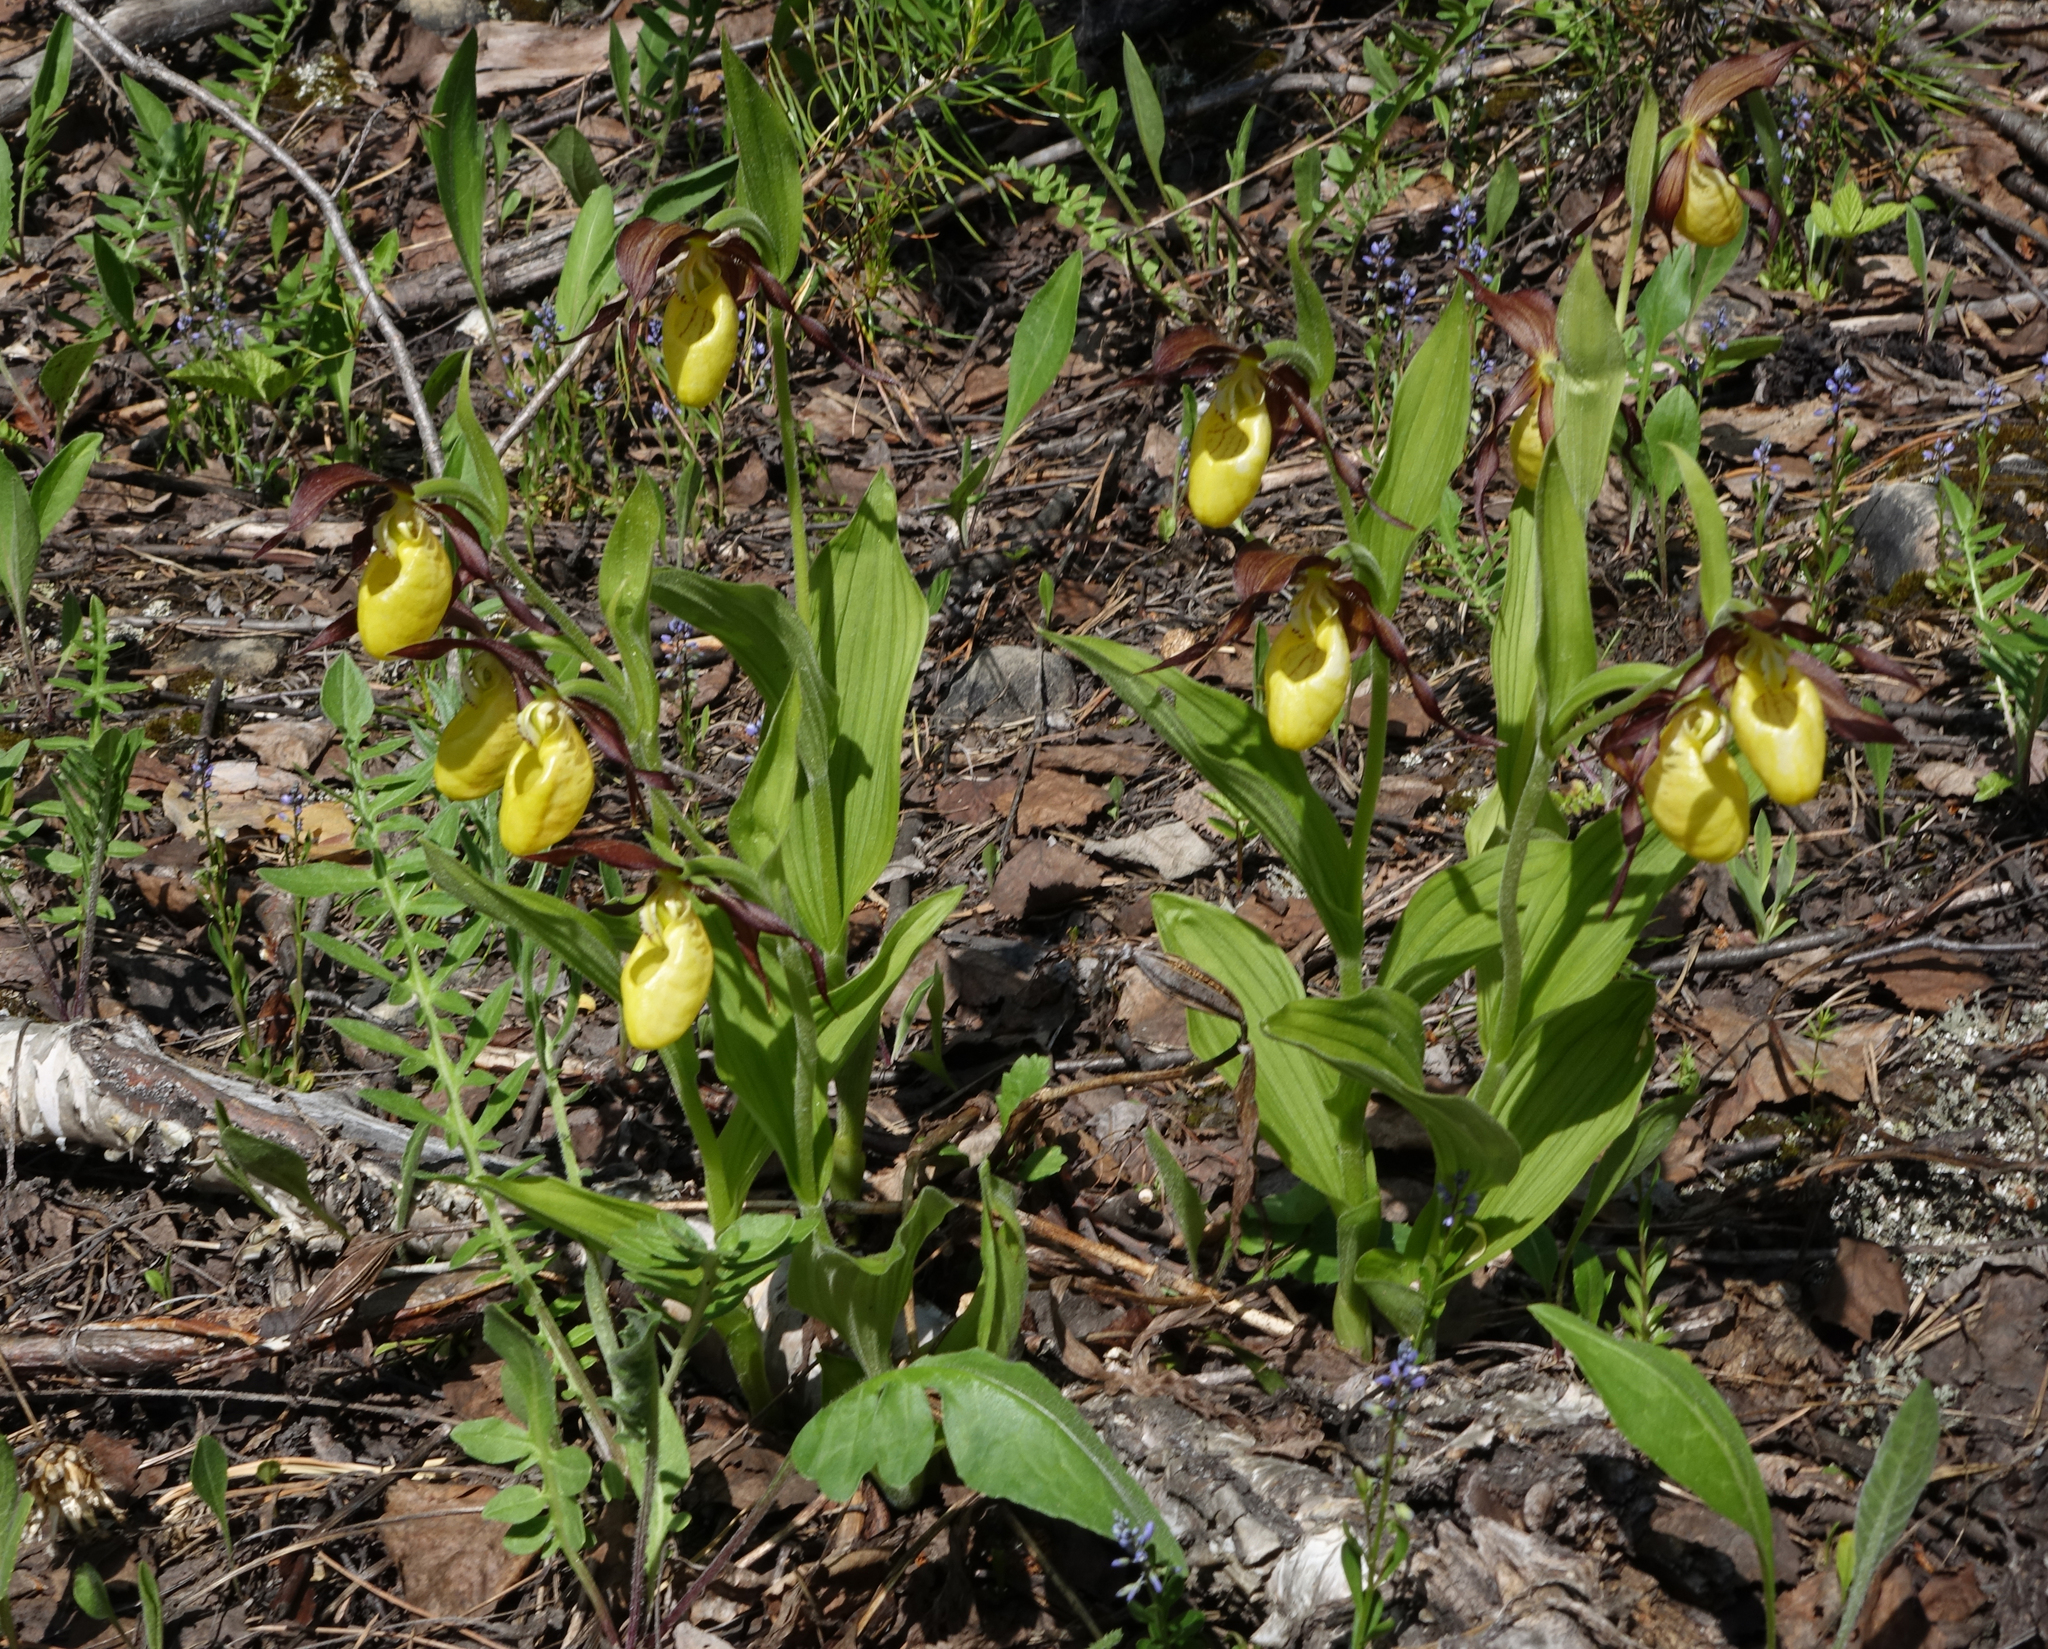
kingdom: Plantae
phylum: Tracheophyta
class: Liliopsida
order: Asparagales
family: Orchidaceae
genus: Cypripedium
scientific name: Cypripedium calceolus
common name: Lady's-slipper
